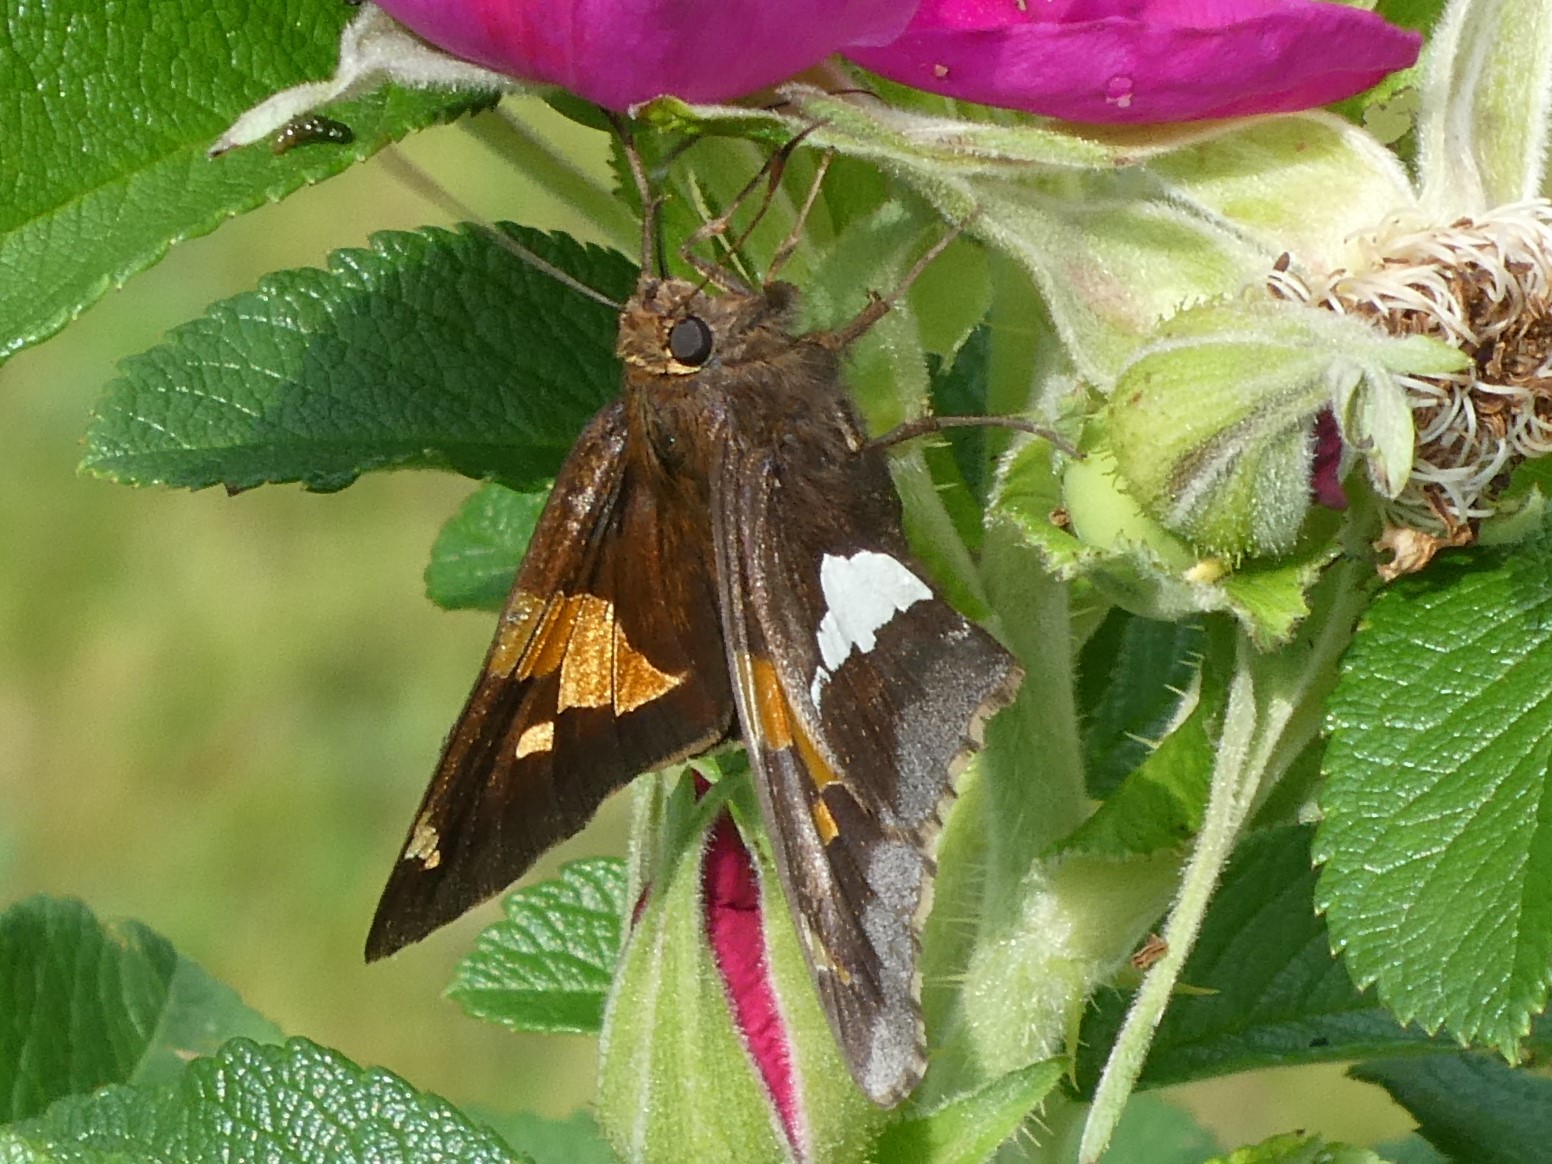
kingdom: Animalia
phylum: Arthropoda
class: Insecta
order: Lepidoptera
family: Hesperiidae
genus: Epargyreus
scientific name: Epargyreus clarus
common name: Silver-spotted skipper
